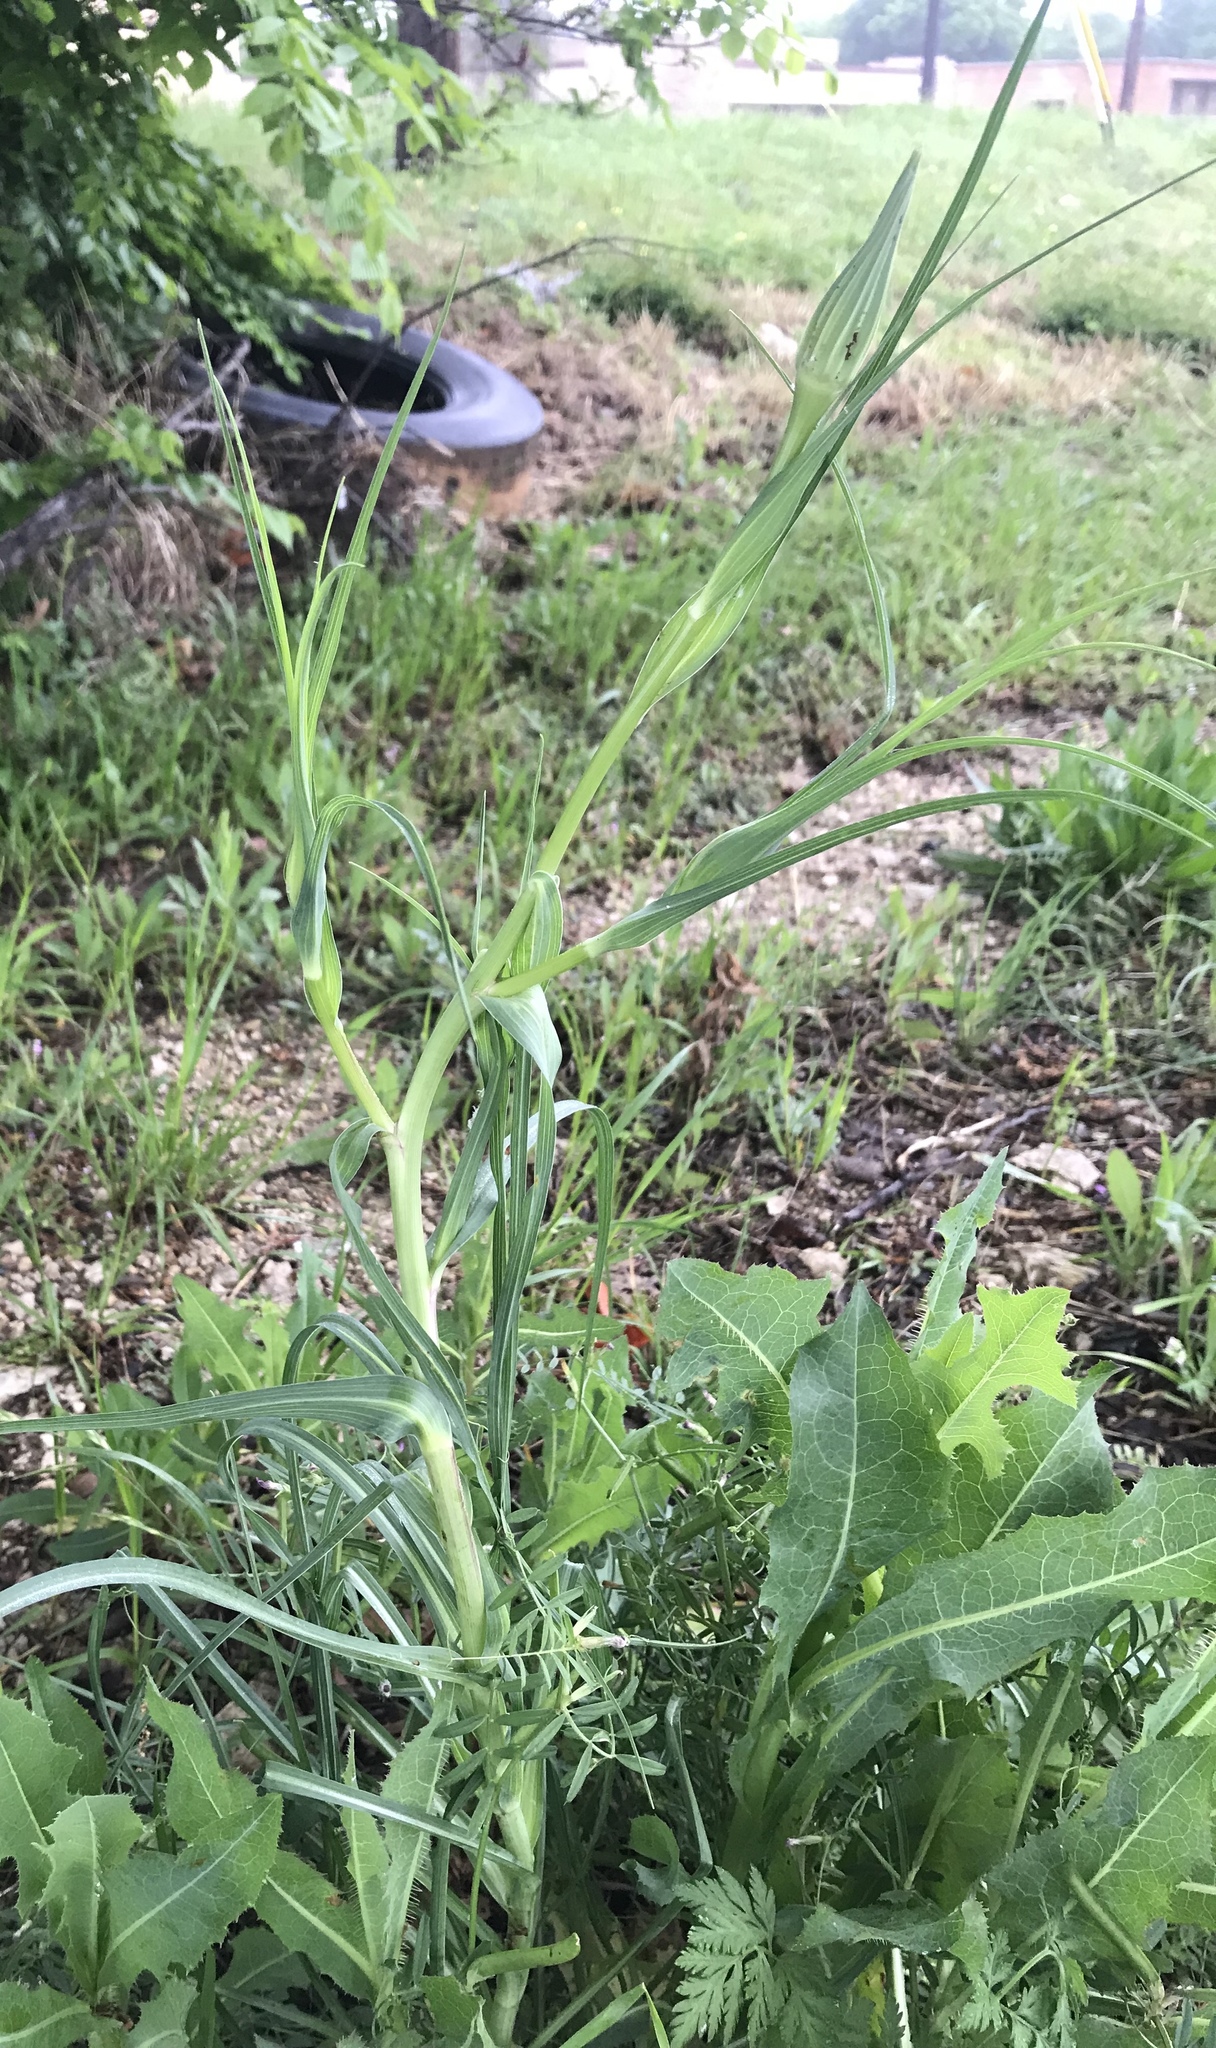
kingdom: Plantae
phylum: Tracheophyta
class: Magnoliopsida
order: Asterales
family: Asteraceae
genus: Tragopogon
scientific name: Tragopogon dubius
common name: Yellow salsify
